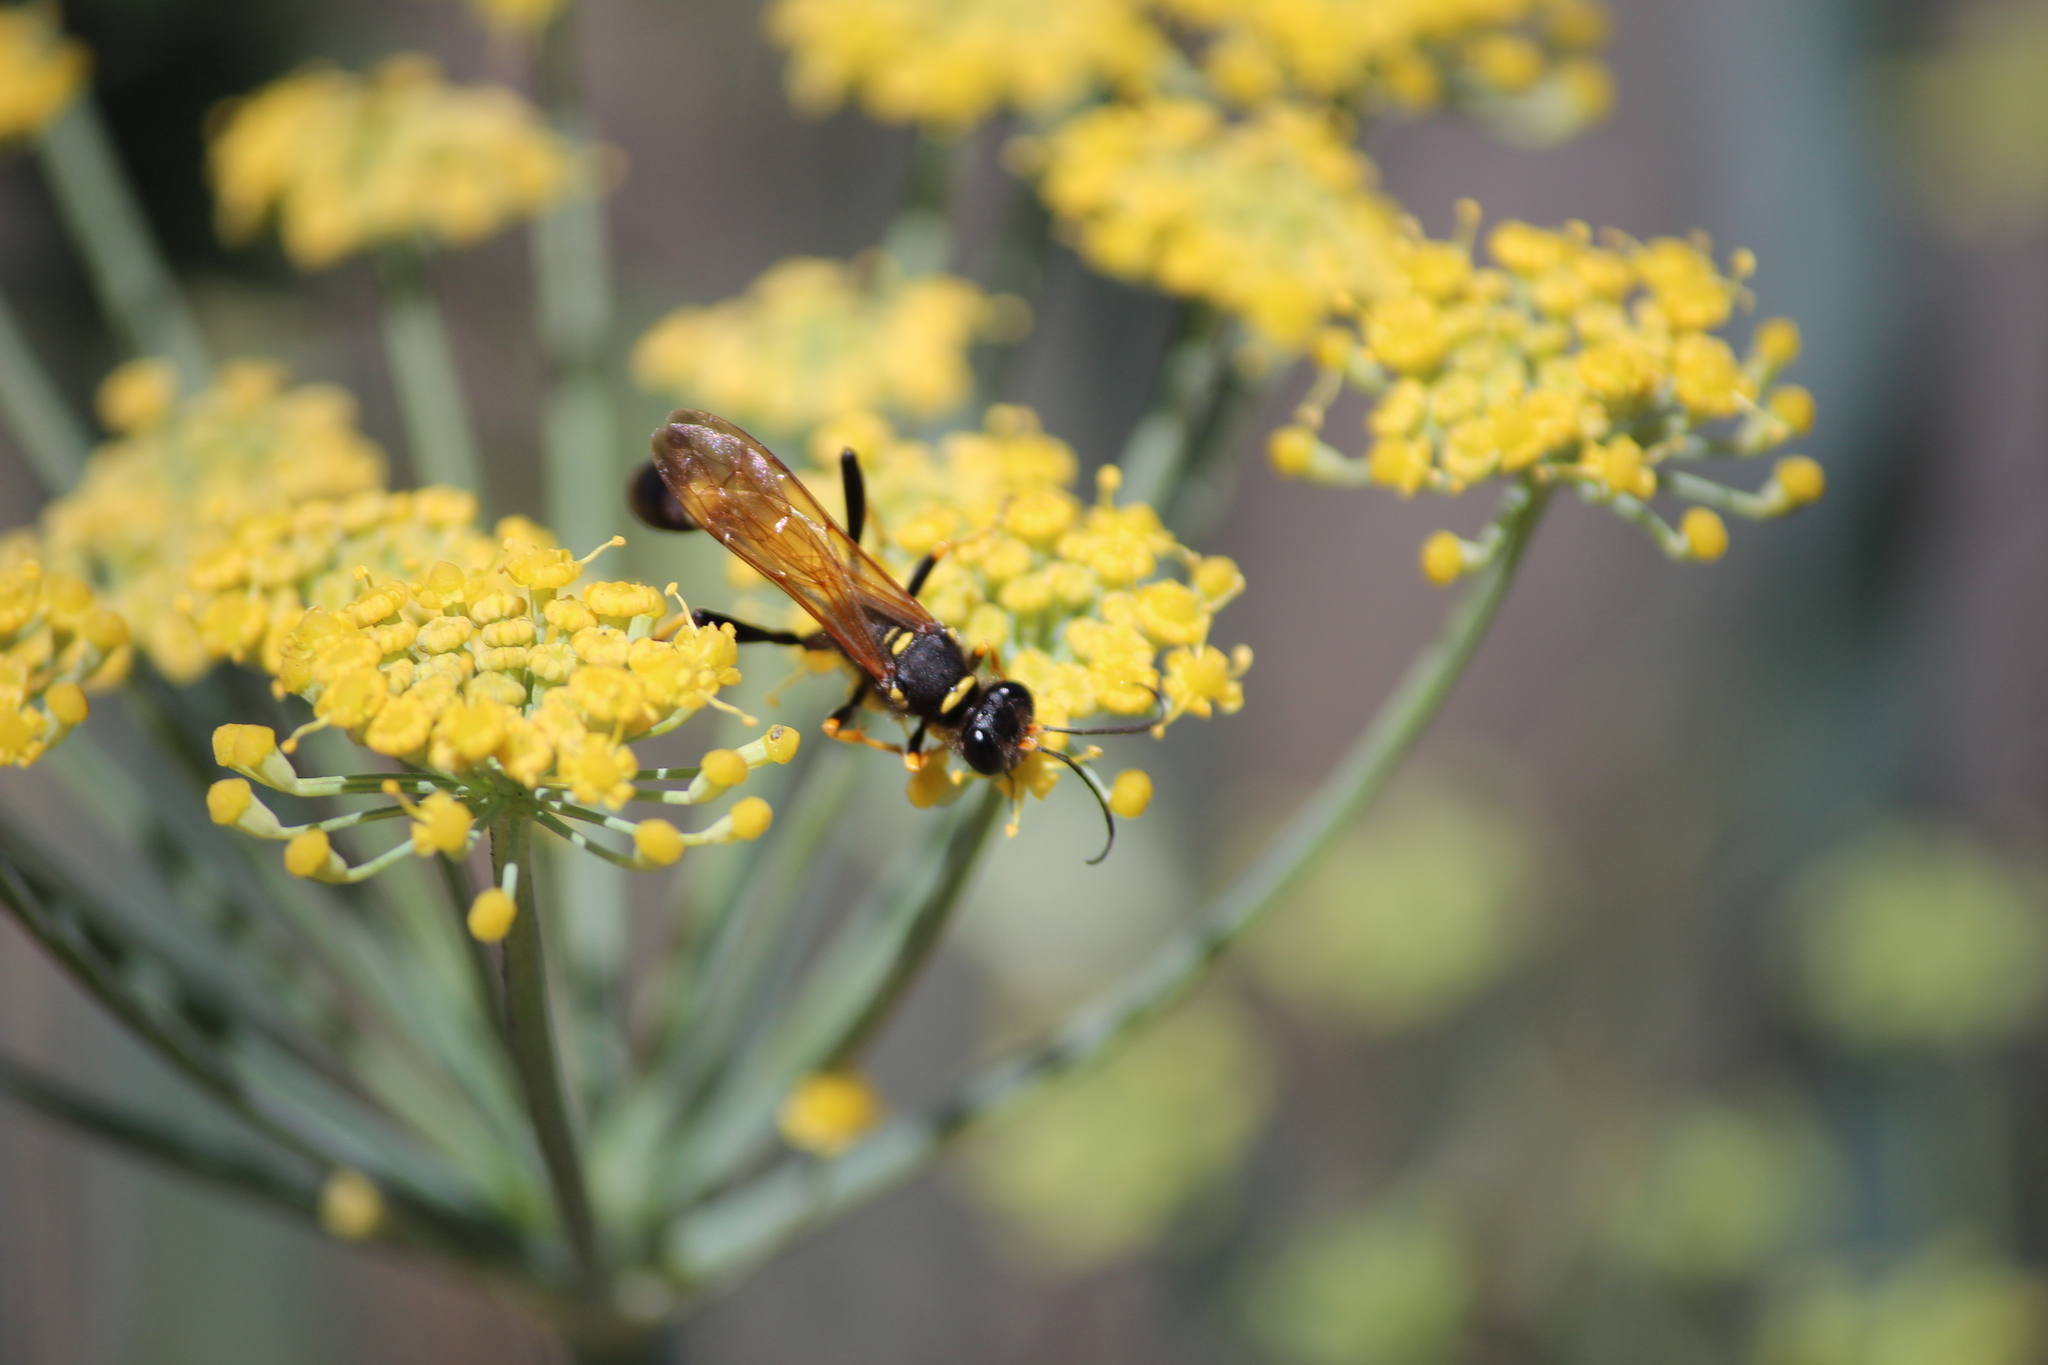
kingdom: Animalia
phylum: Arthropoda
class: Insecta
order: Hymenoptera
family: Sphecidae
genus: Sceliphron
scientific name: Sceliphron caementarium
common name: Mud dauber
